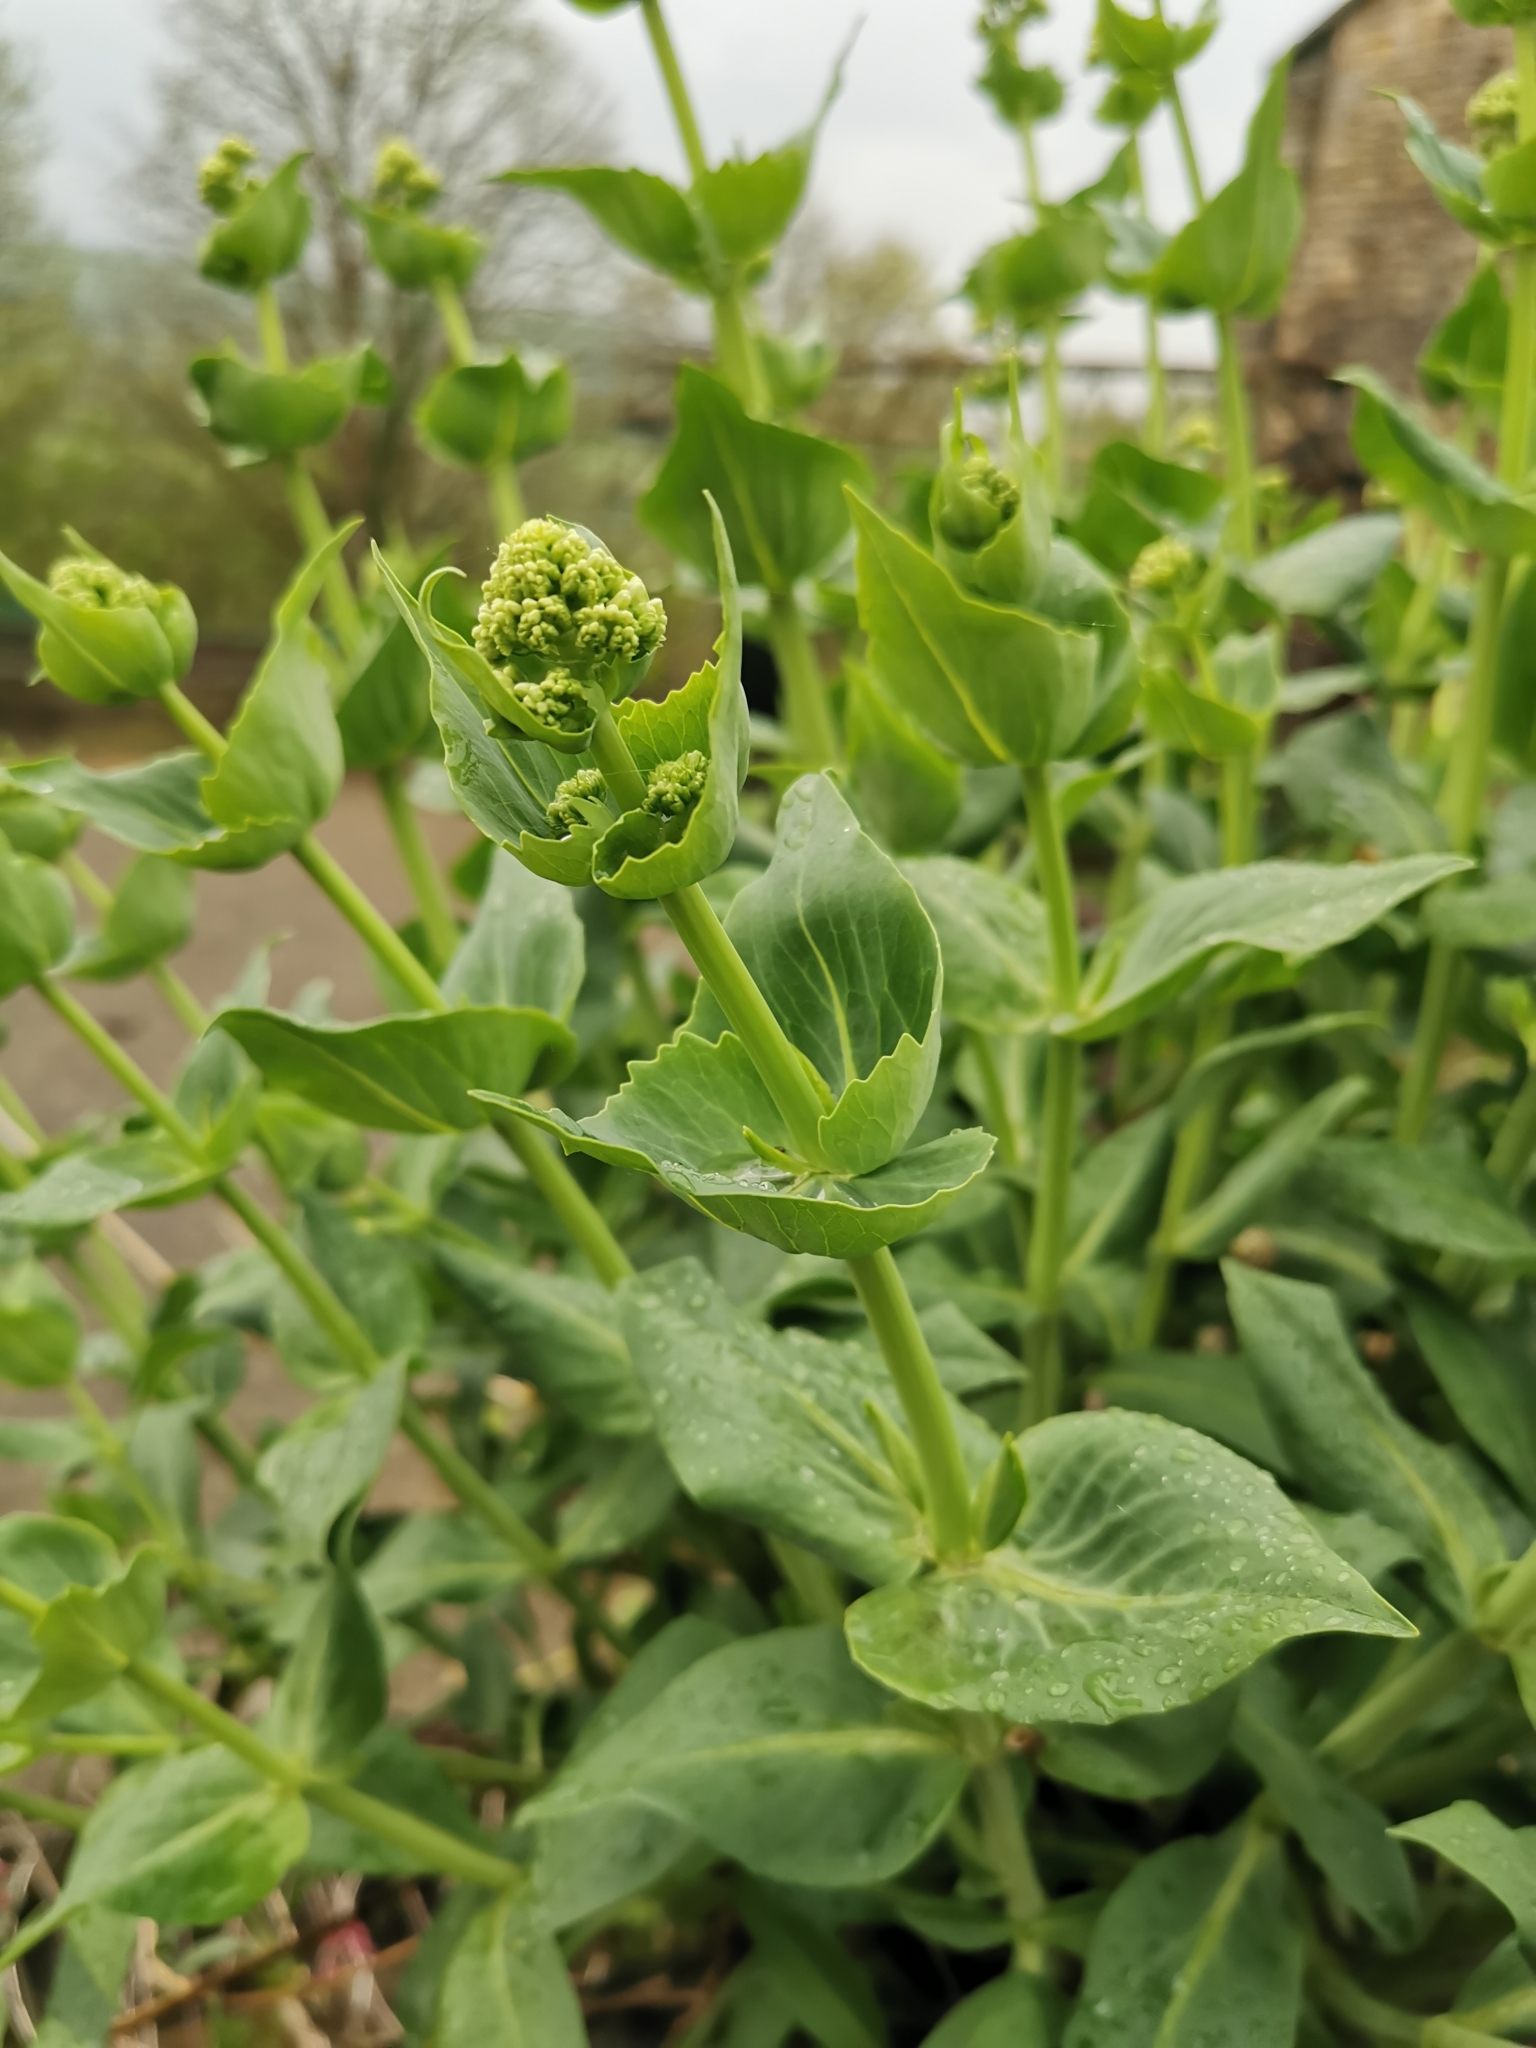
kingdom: Plantae
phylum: Tracheophyta
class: Magnoliopsida
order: Dipsacales
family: Caprifoliaceae
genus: Centranthus
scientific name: Centranthus ruber
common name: Red valerian
